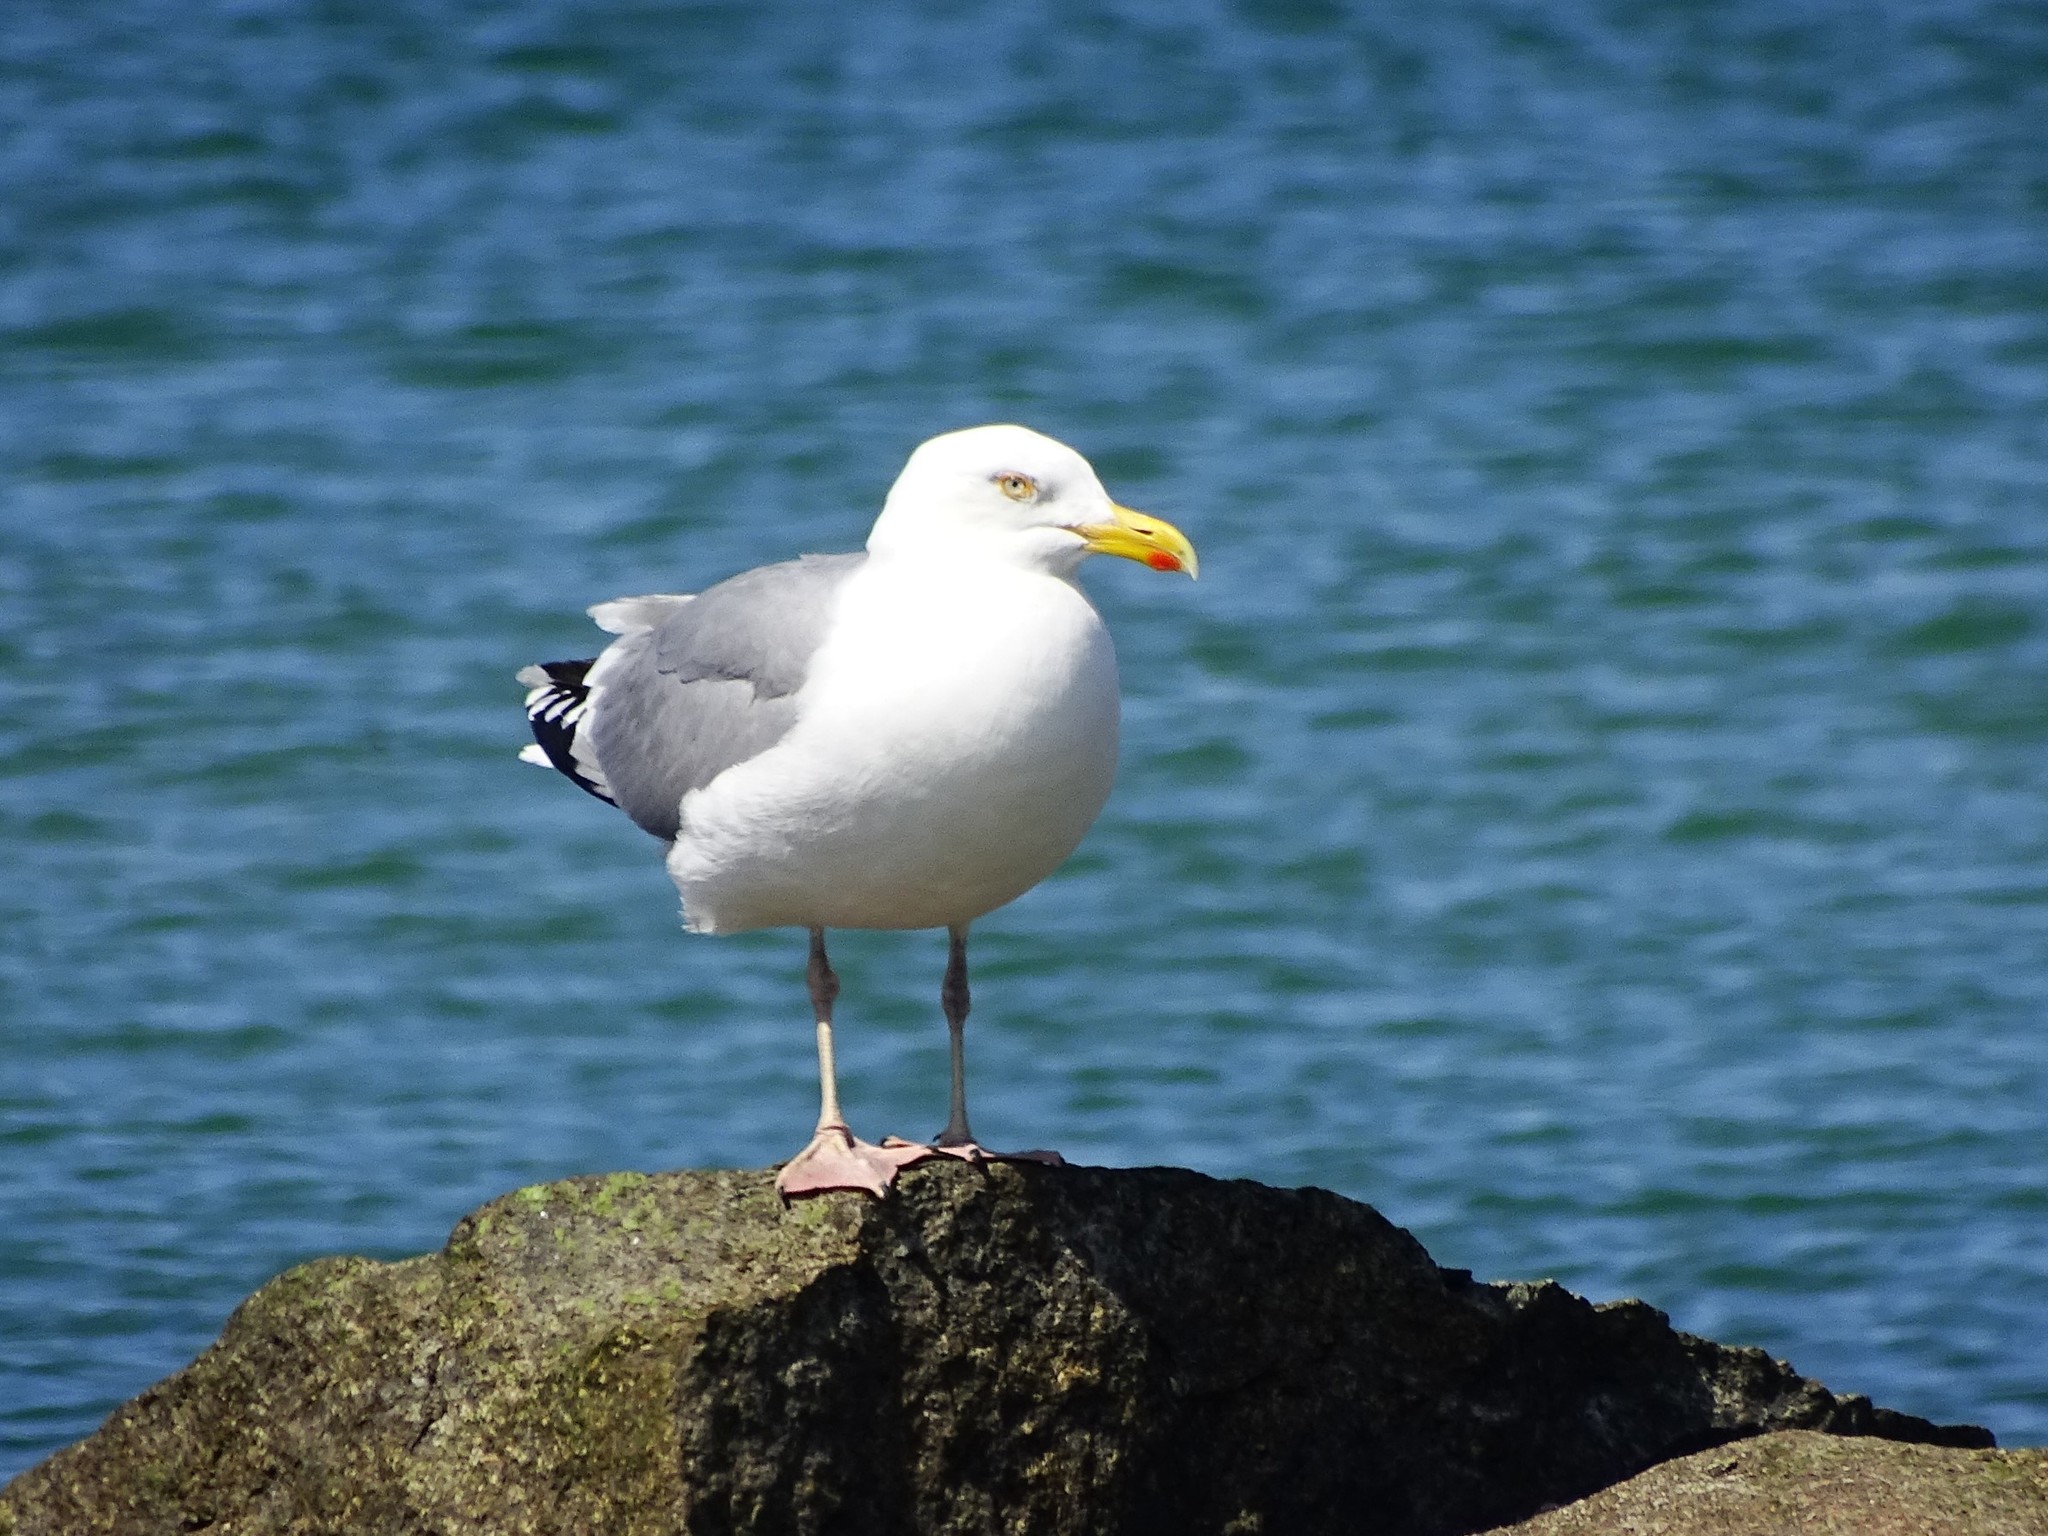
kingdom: Animalia
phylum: Chordata
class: Aves
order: Charadriiformes
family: Laridae
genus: Larus
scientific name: Larus argentatus
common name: Herring gull
